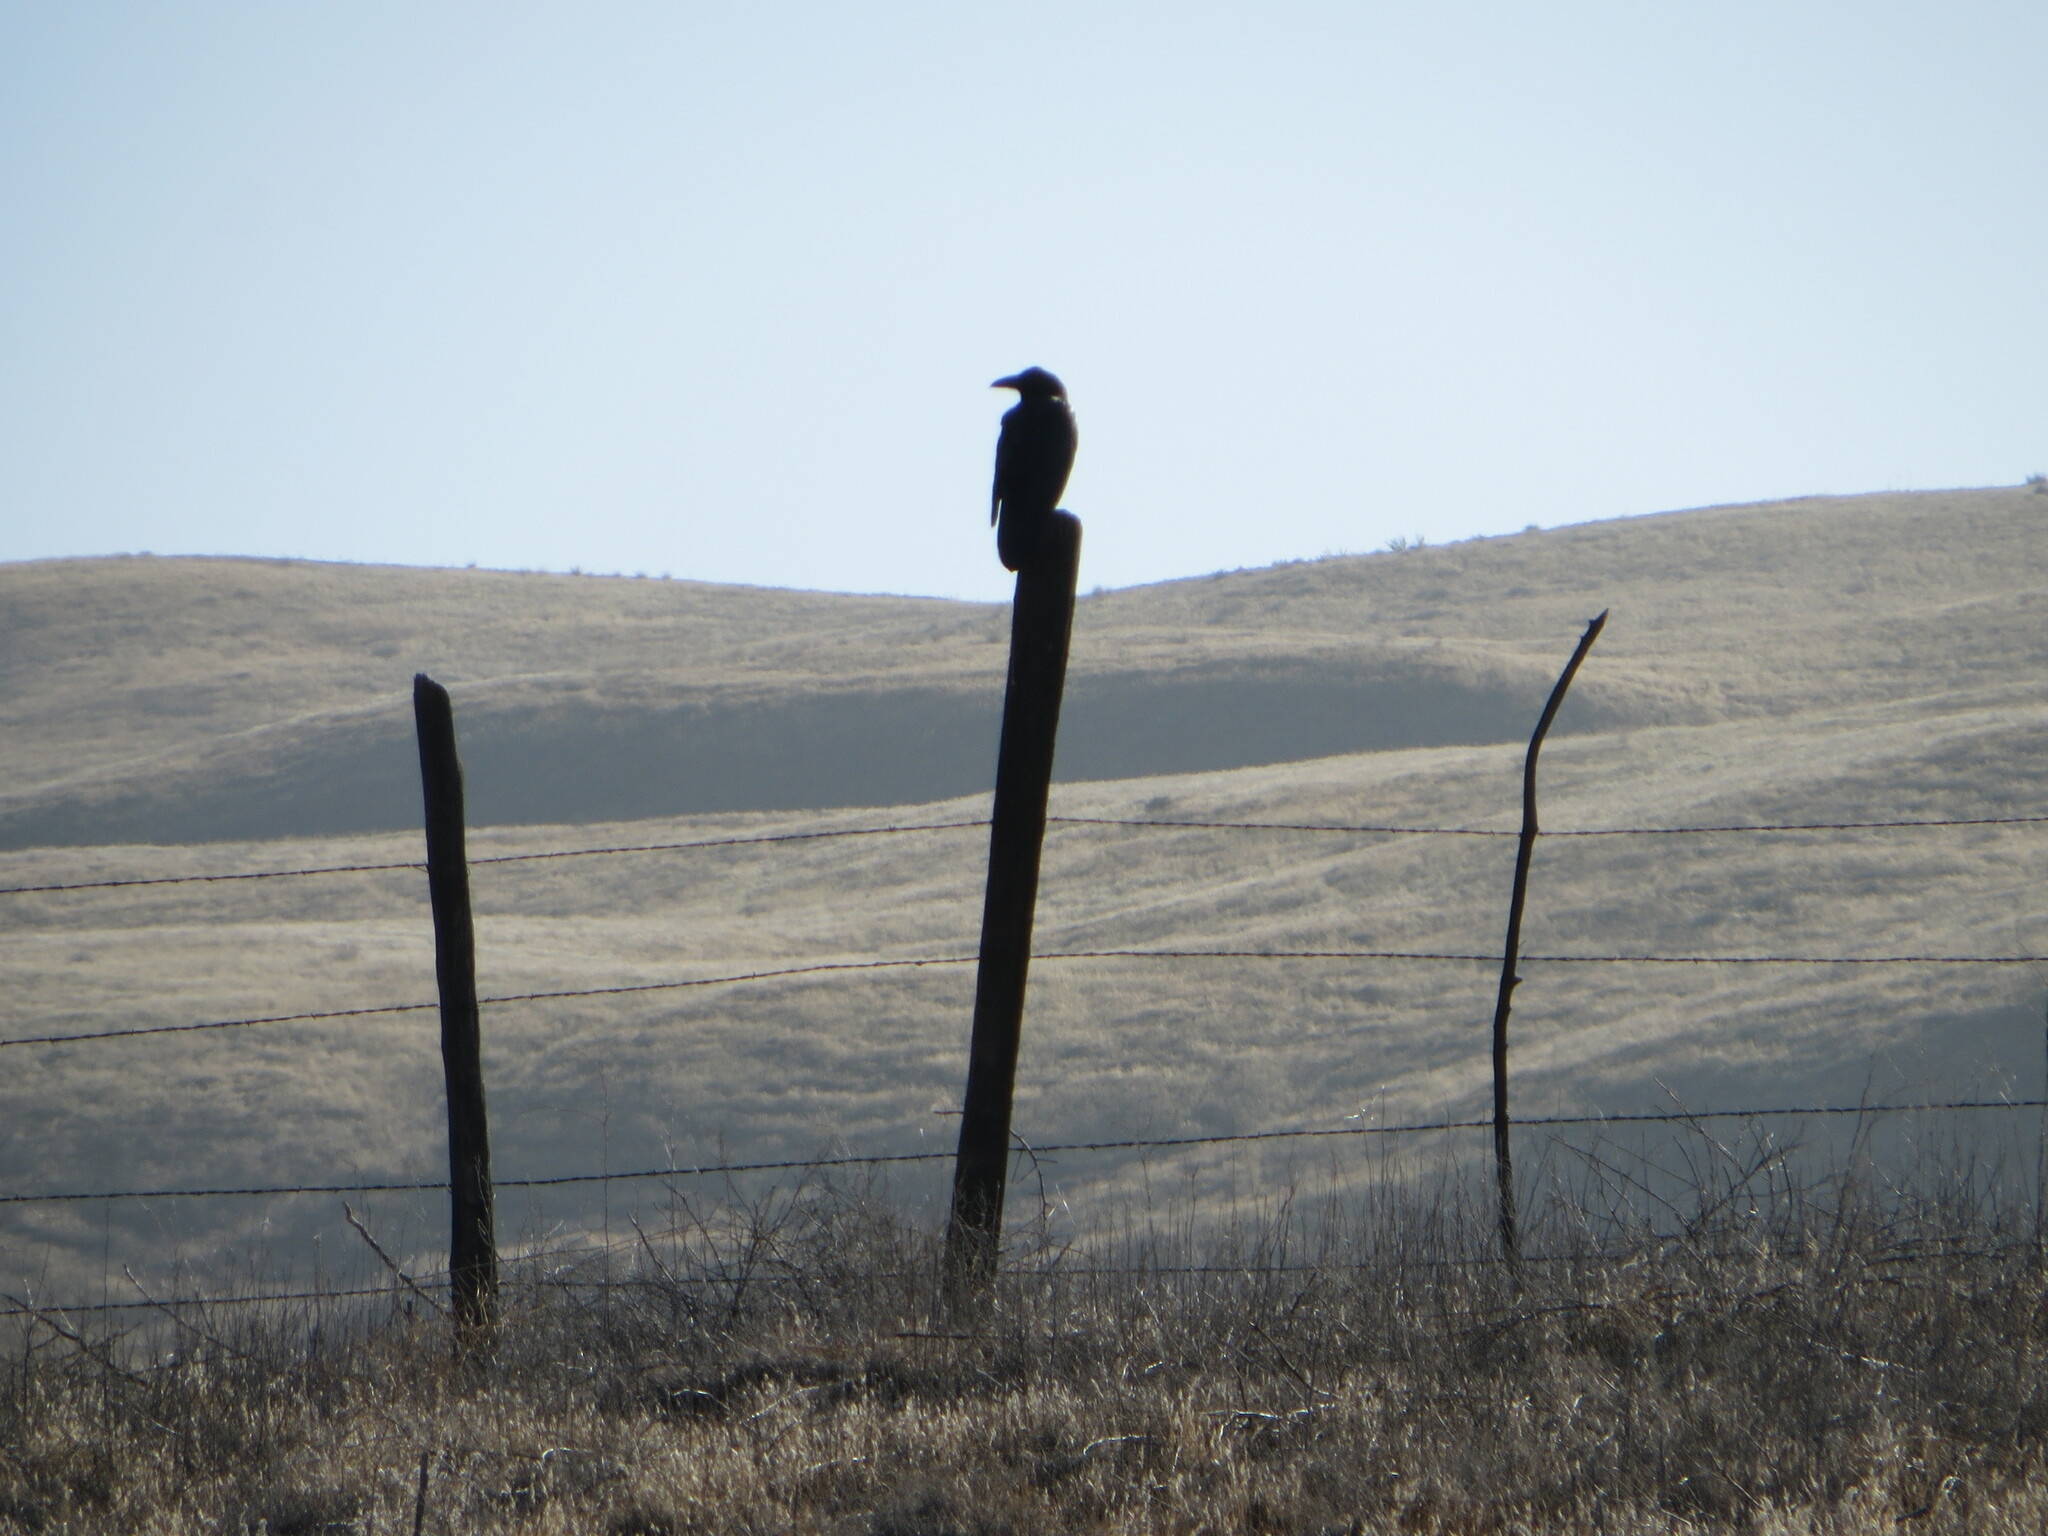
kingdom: Animalia
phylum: Chordata
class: Aves
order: Passeriformes
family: Corvidae
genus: Corvus
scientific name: Corvus corax
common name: Common raven
